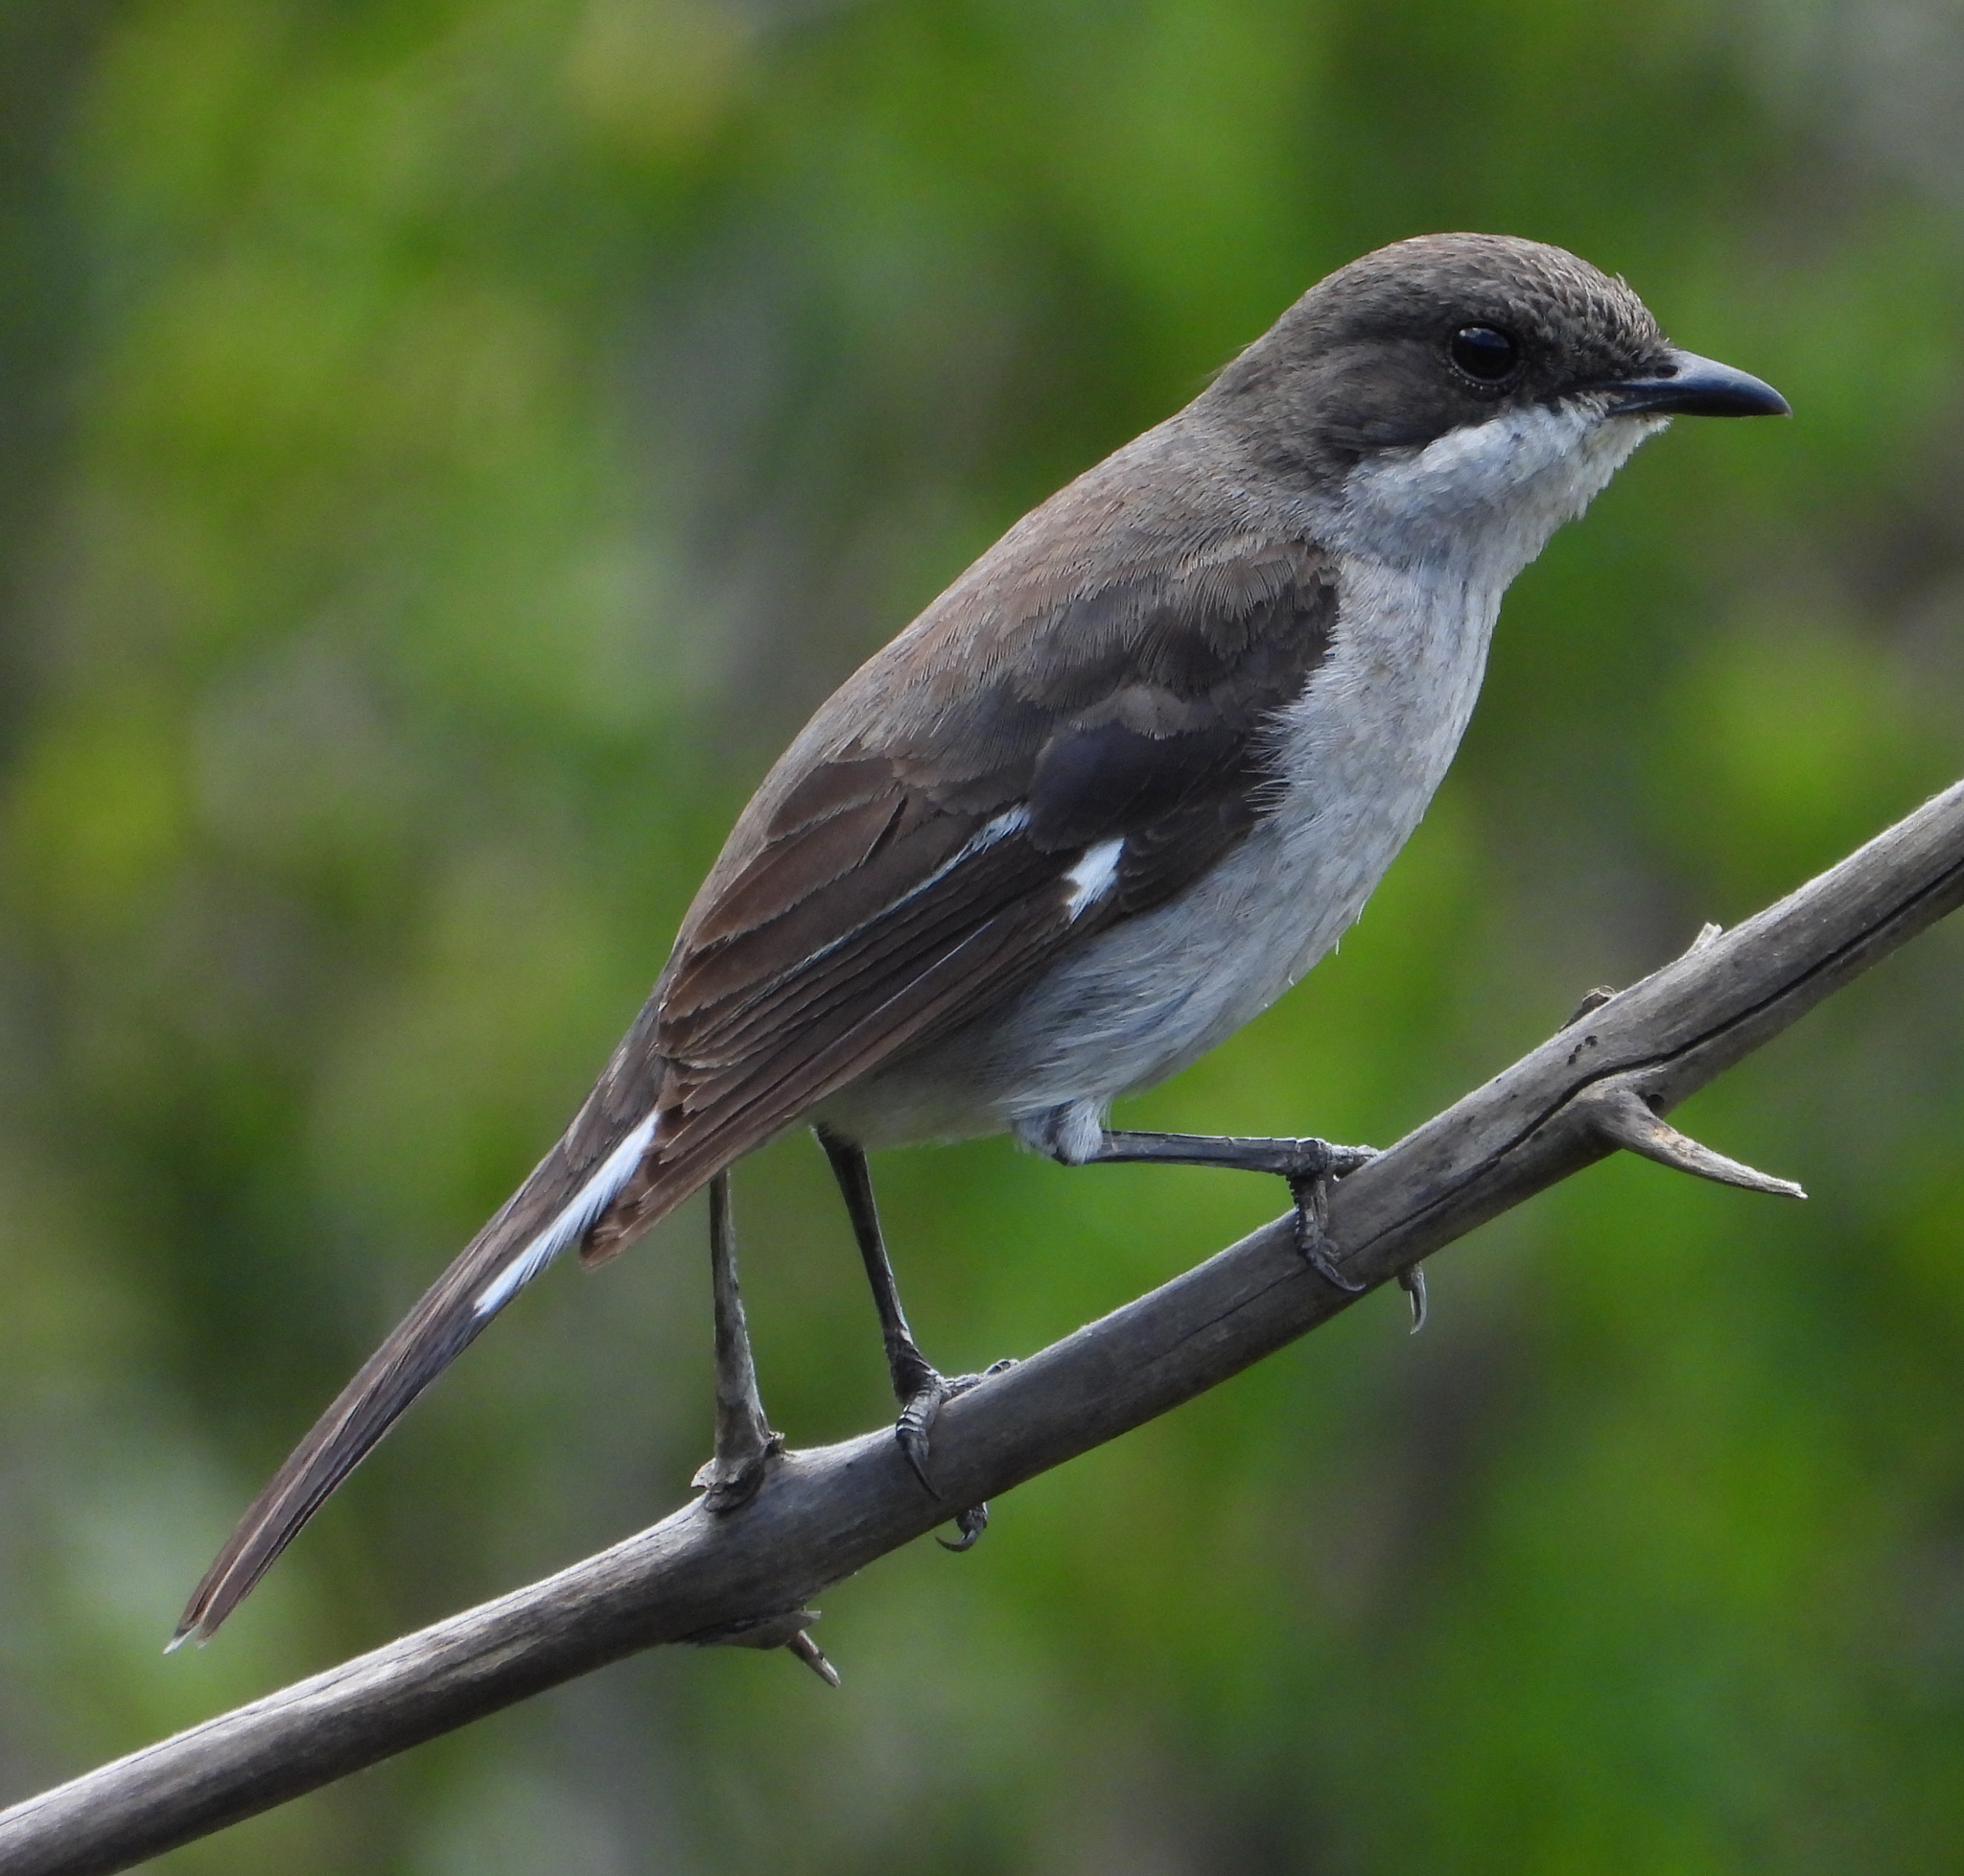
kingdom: Animalia
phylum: Chordata
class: Aves
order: Passeriformes
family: Muscicapidae
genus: Sigelus
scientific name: Sigelus silens
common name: Fiscal flycatcher
